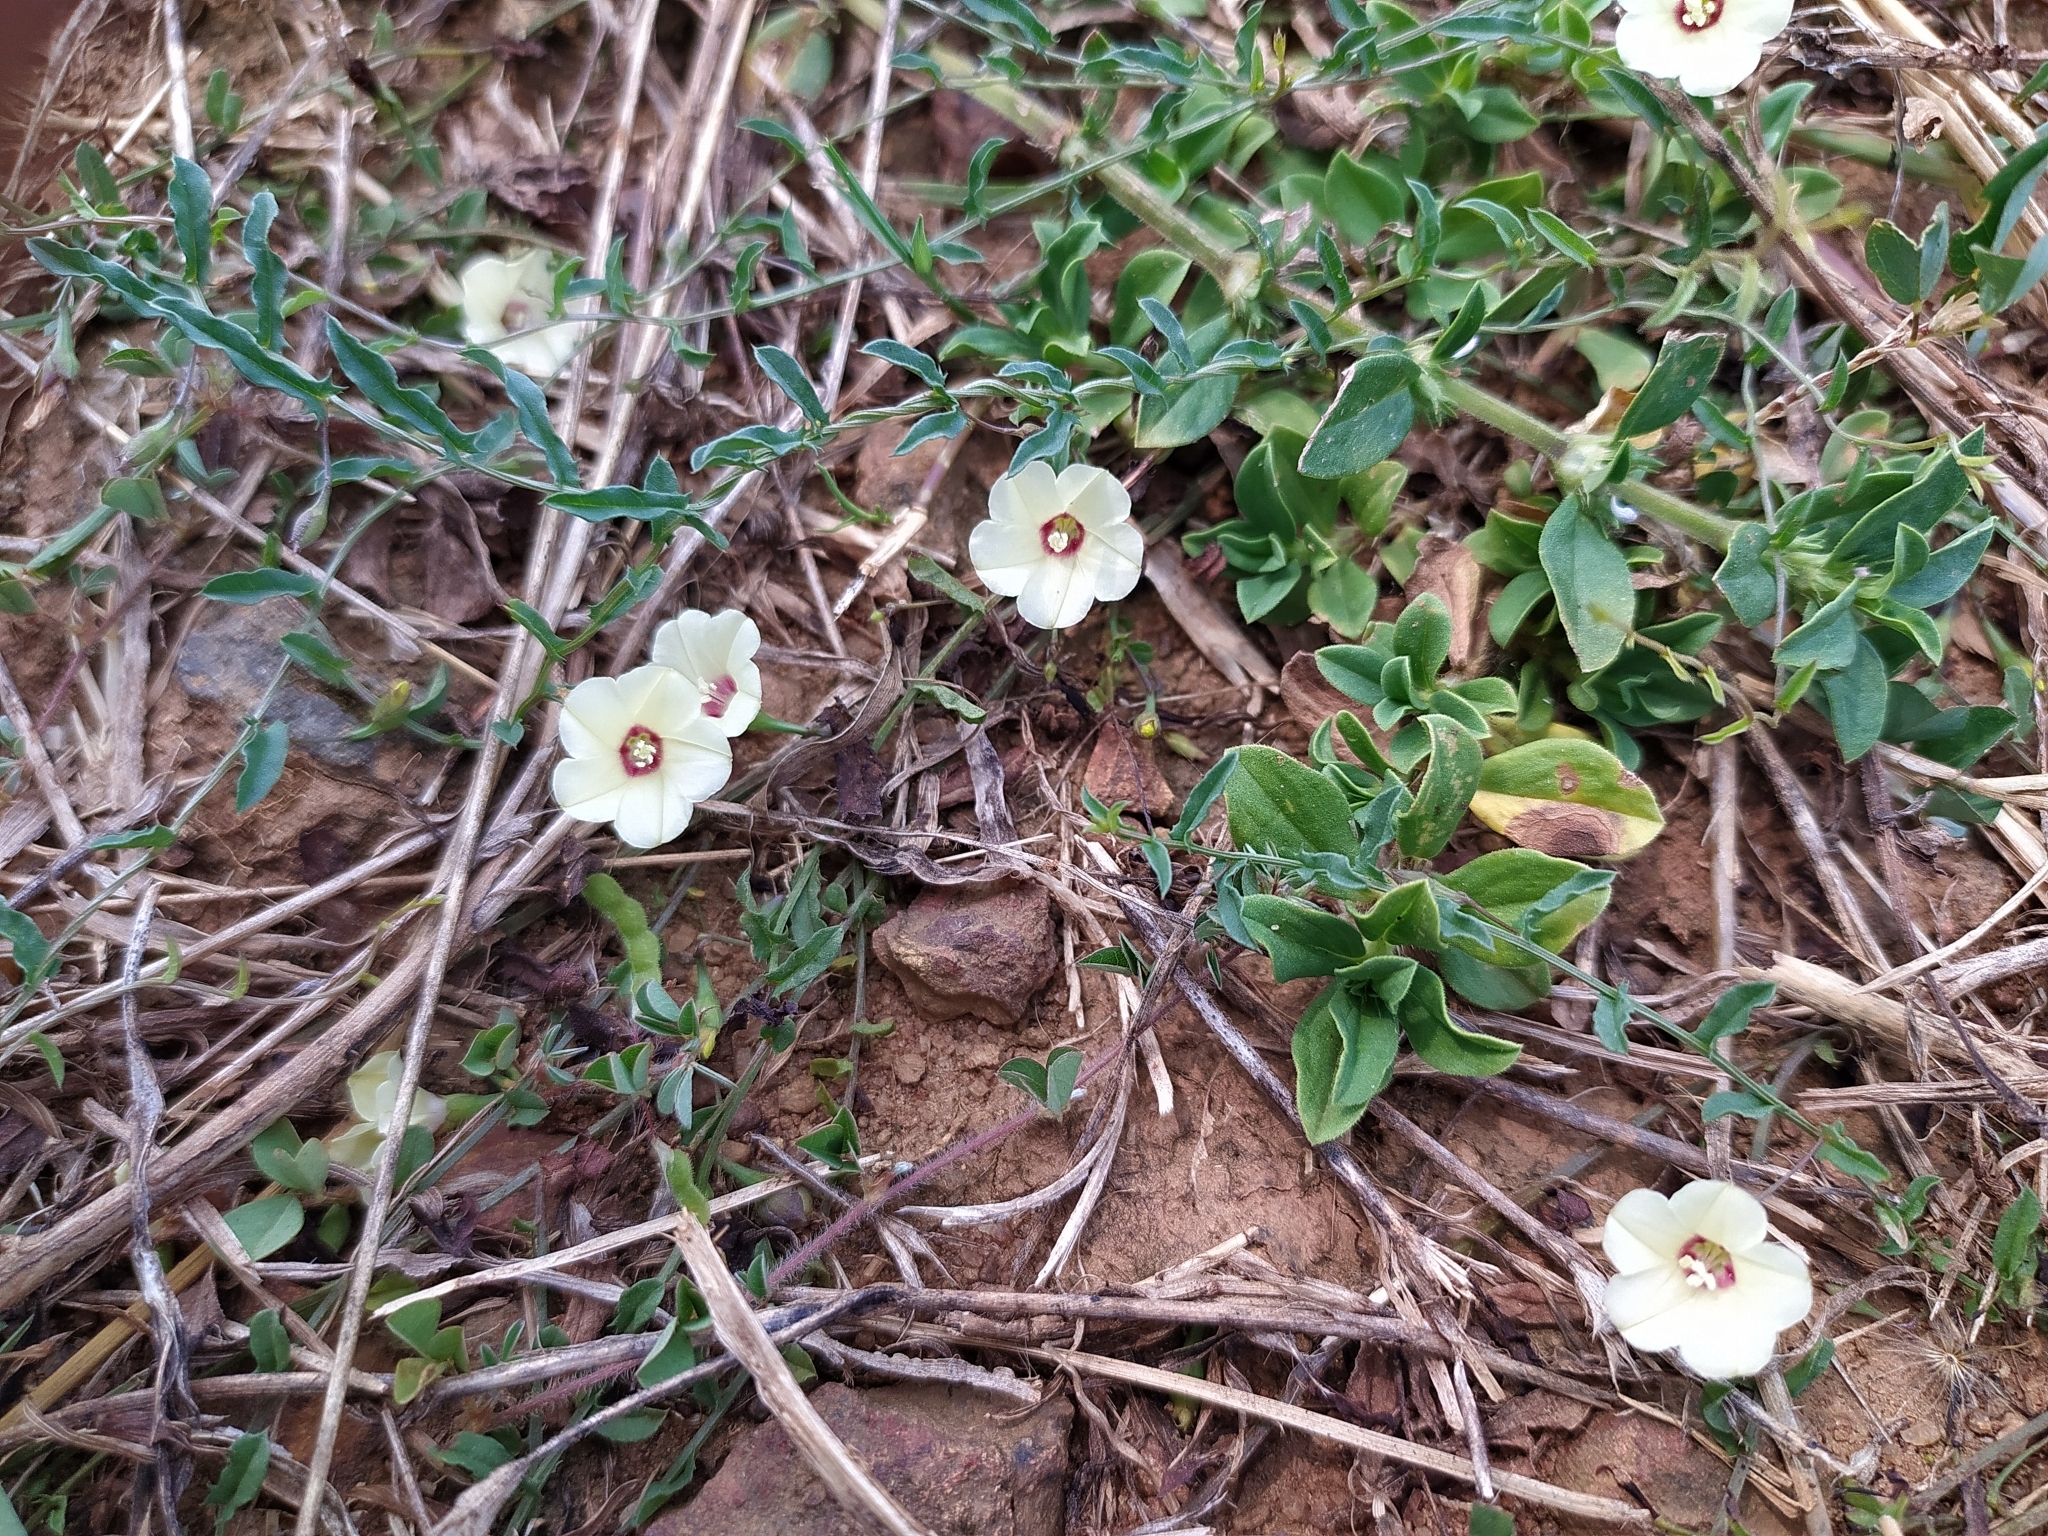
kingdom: Plantae
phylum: Tracheophyta
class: Magnoliopsida
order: Solanales
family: Convolvulaceae
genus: Xenostegia
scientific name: Xenostegia tridentata
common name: African morningvine
